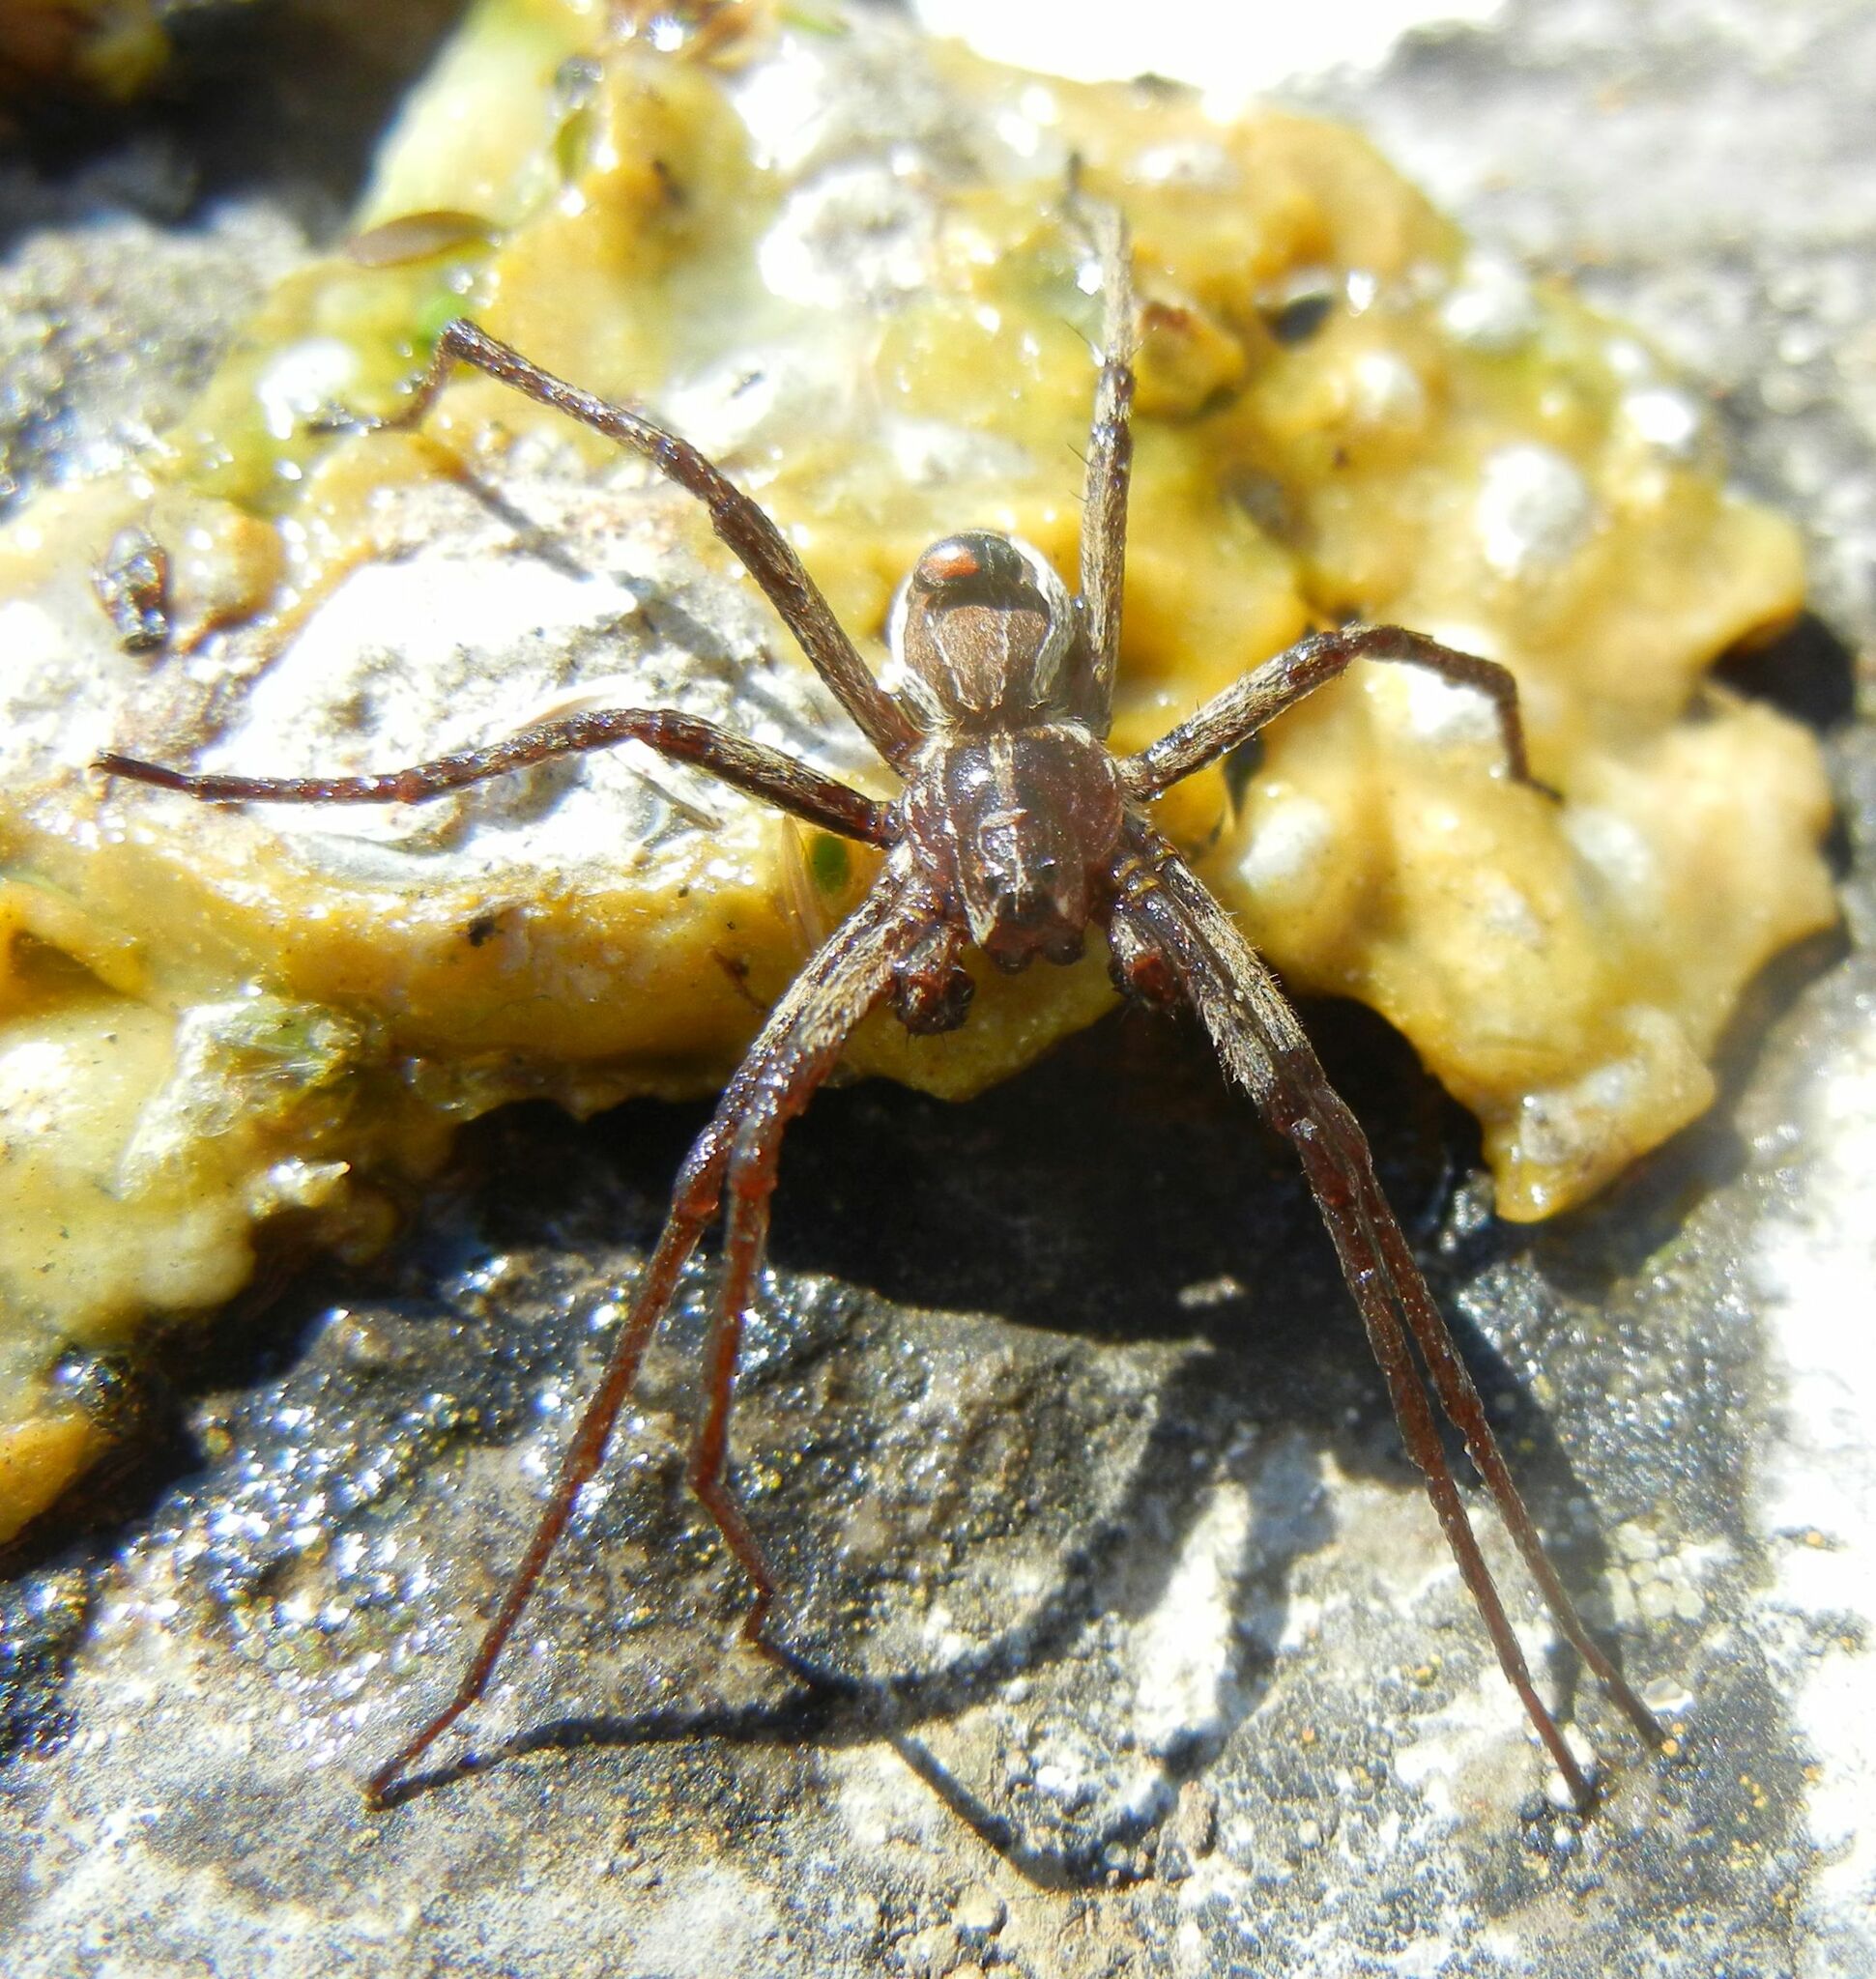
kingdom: Animalia
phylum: Arthropoda
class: Arachnida
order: Araneae
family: Pisauridae
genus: Pisaura
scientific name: Pisaura mirabilis
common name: Tent spider
